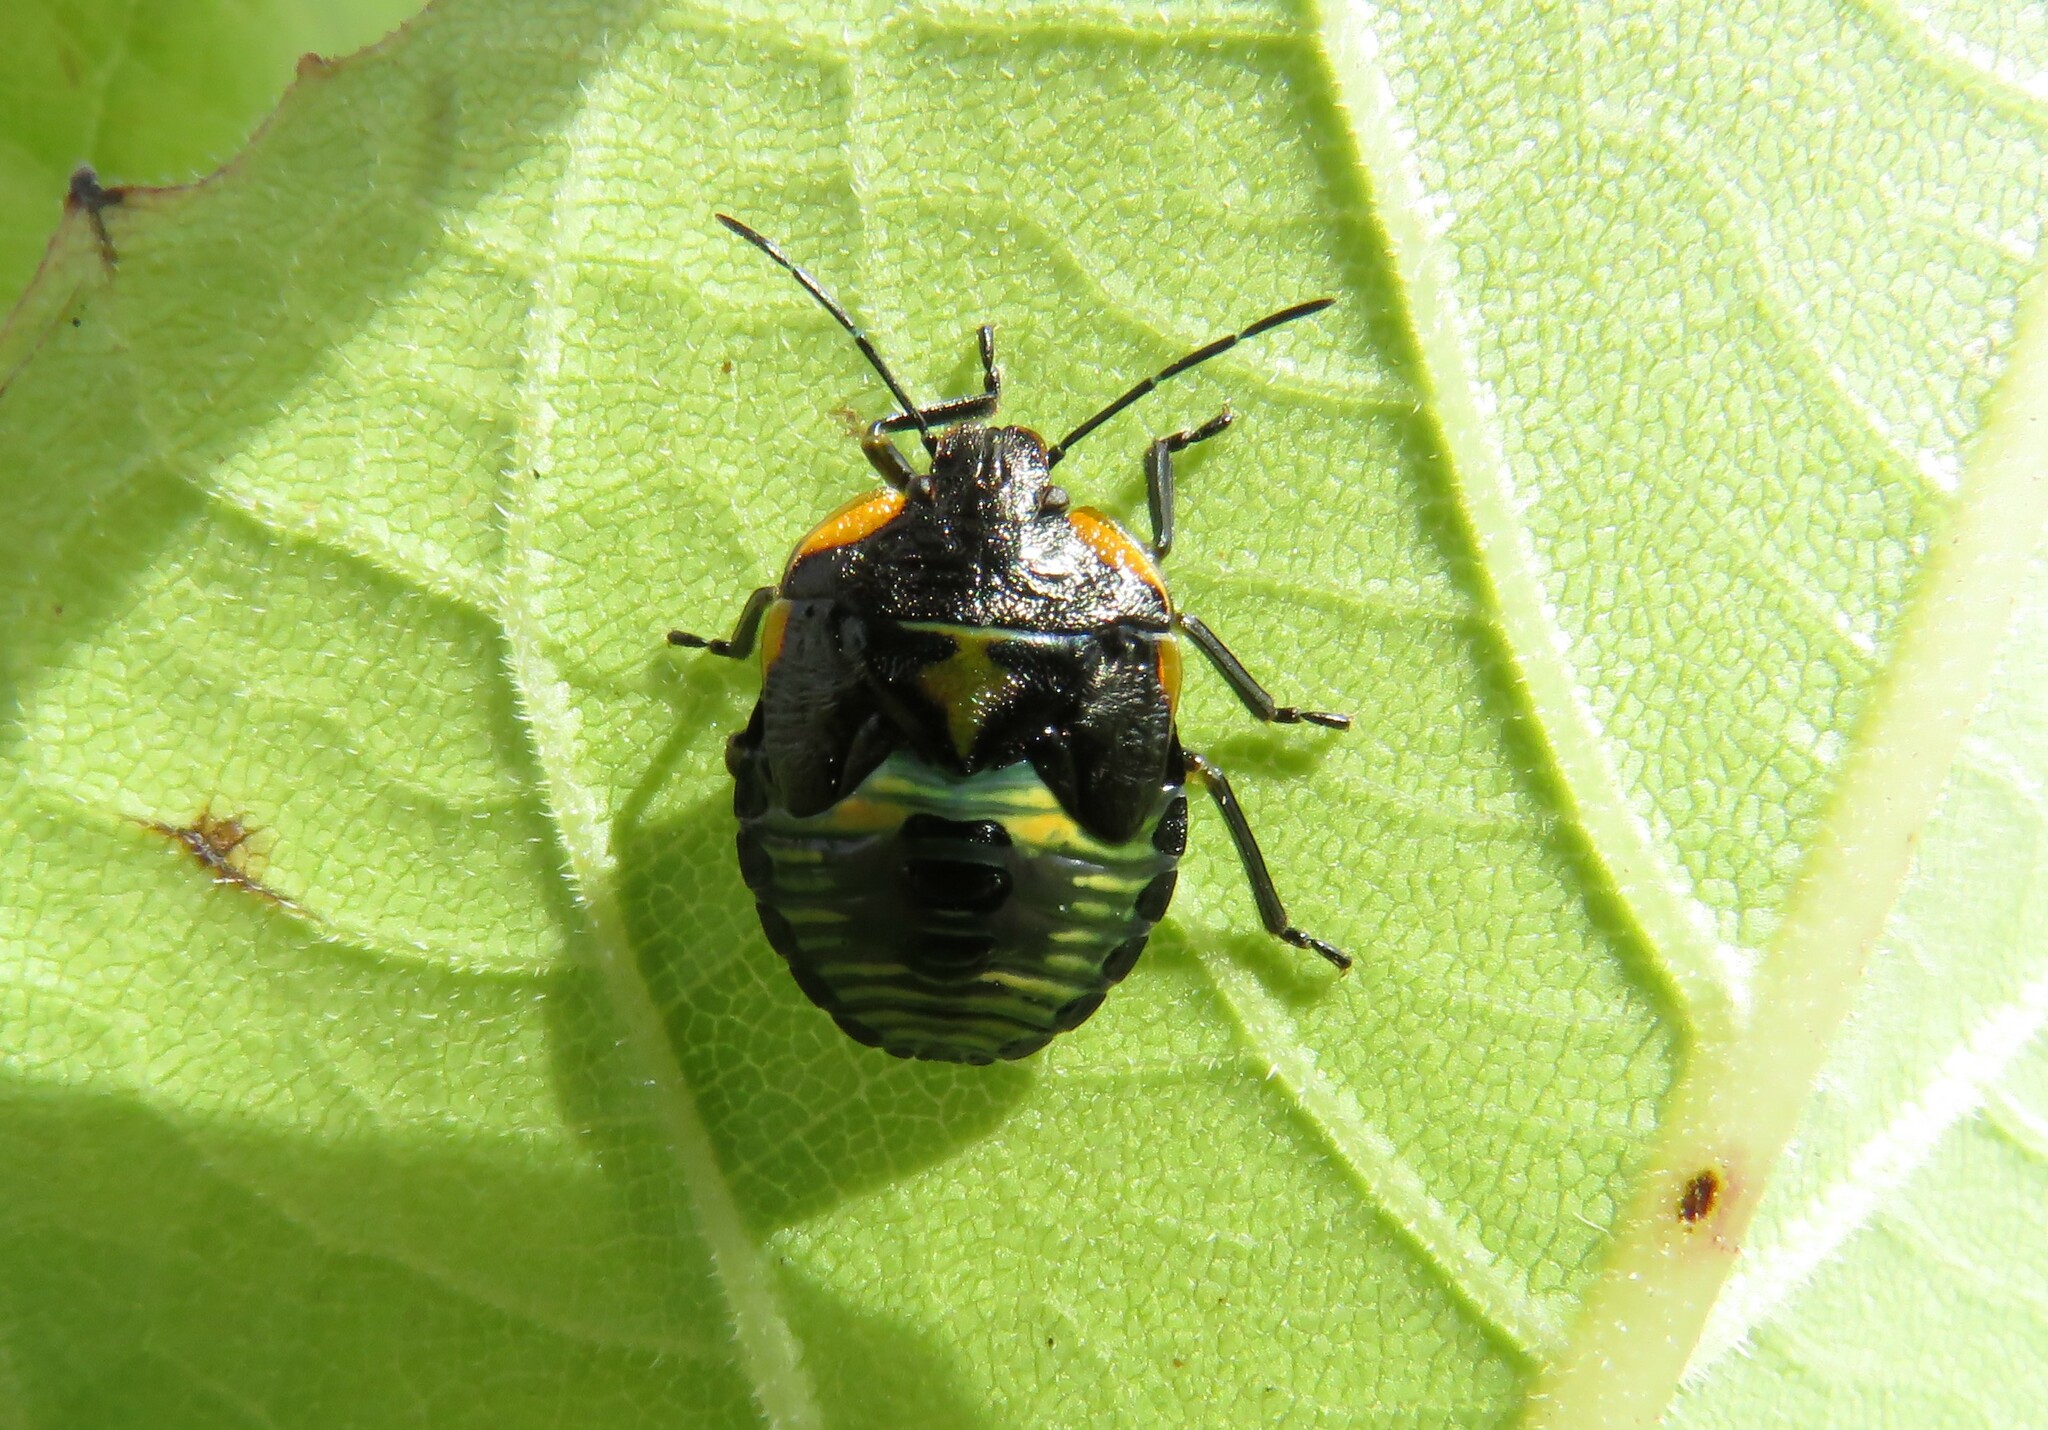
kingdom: Animalia
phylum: Arthropoda
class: Insecta
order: Hemiptera
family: Pentatomidae
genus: Chinavia
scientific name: Chinavia hilaris
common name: Green stink bug
